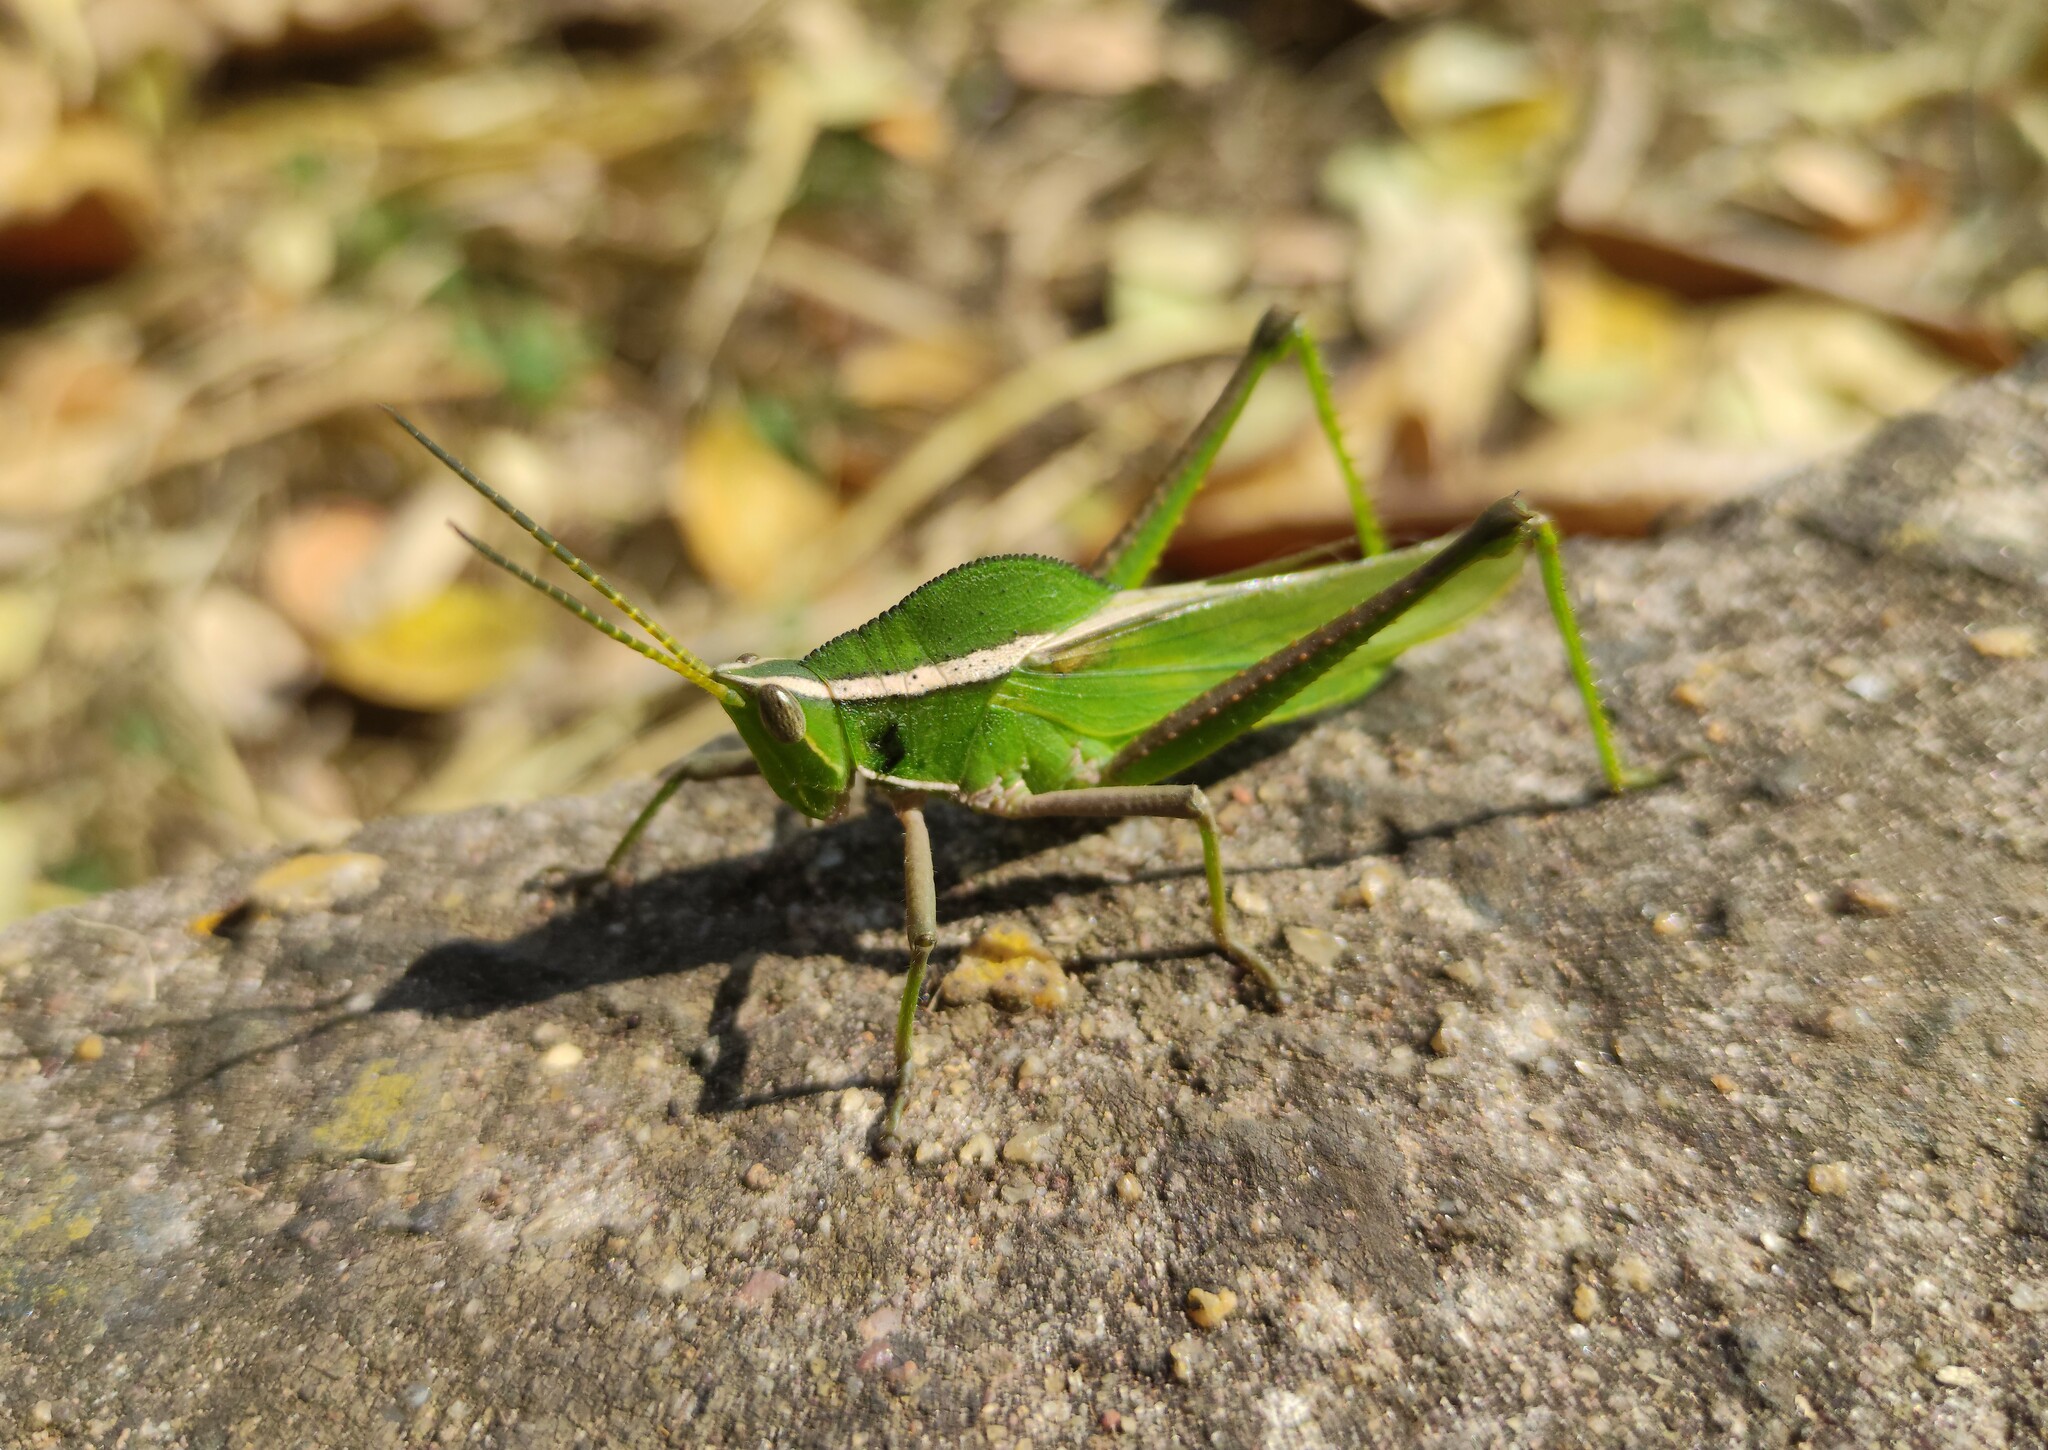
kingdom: Animalia
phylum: Arthropoda
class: Insecta
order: Orthoptera
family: Romaleidae
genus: Prionolopha
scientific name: Prionolopha serrata
